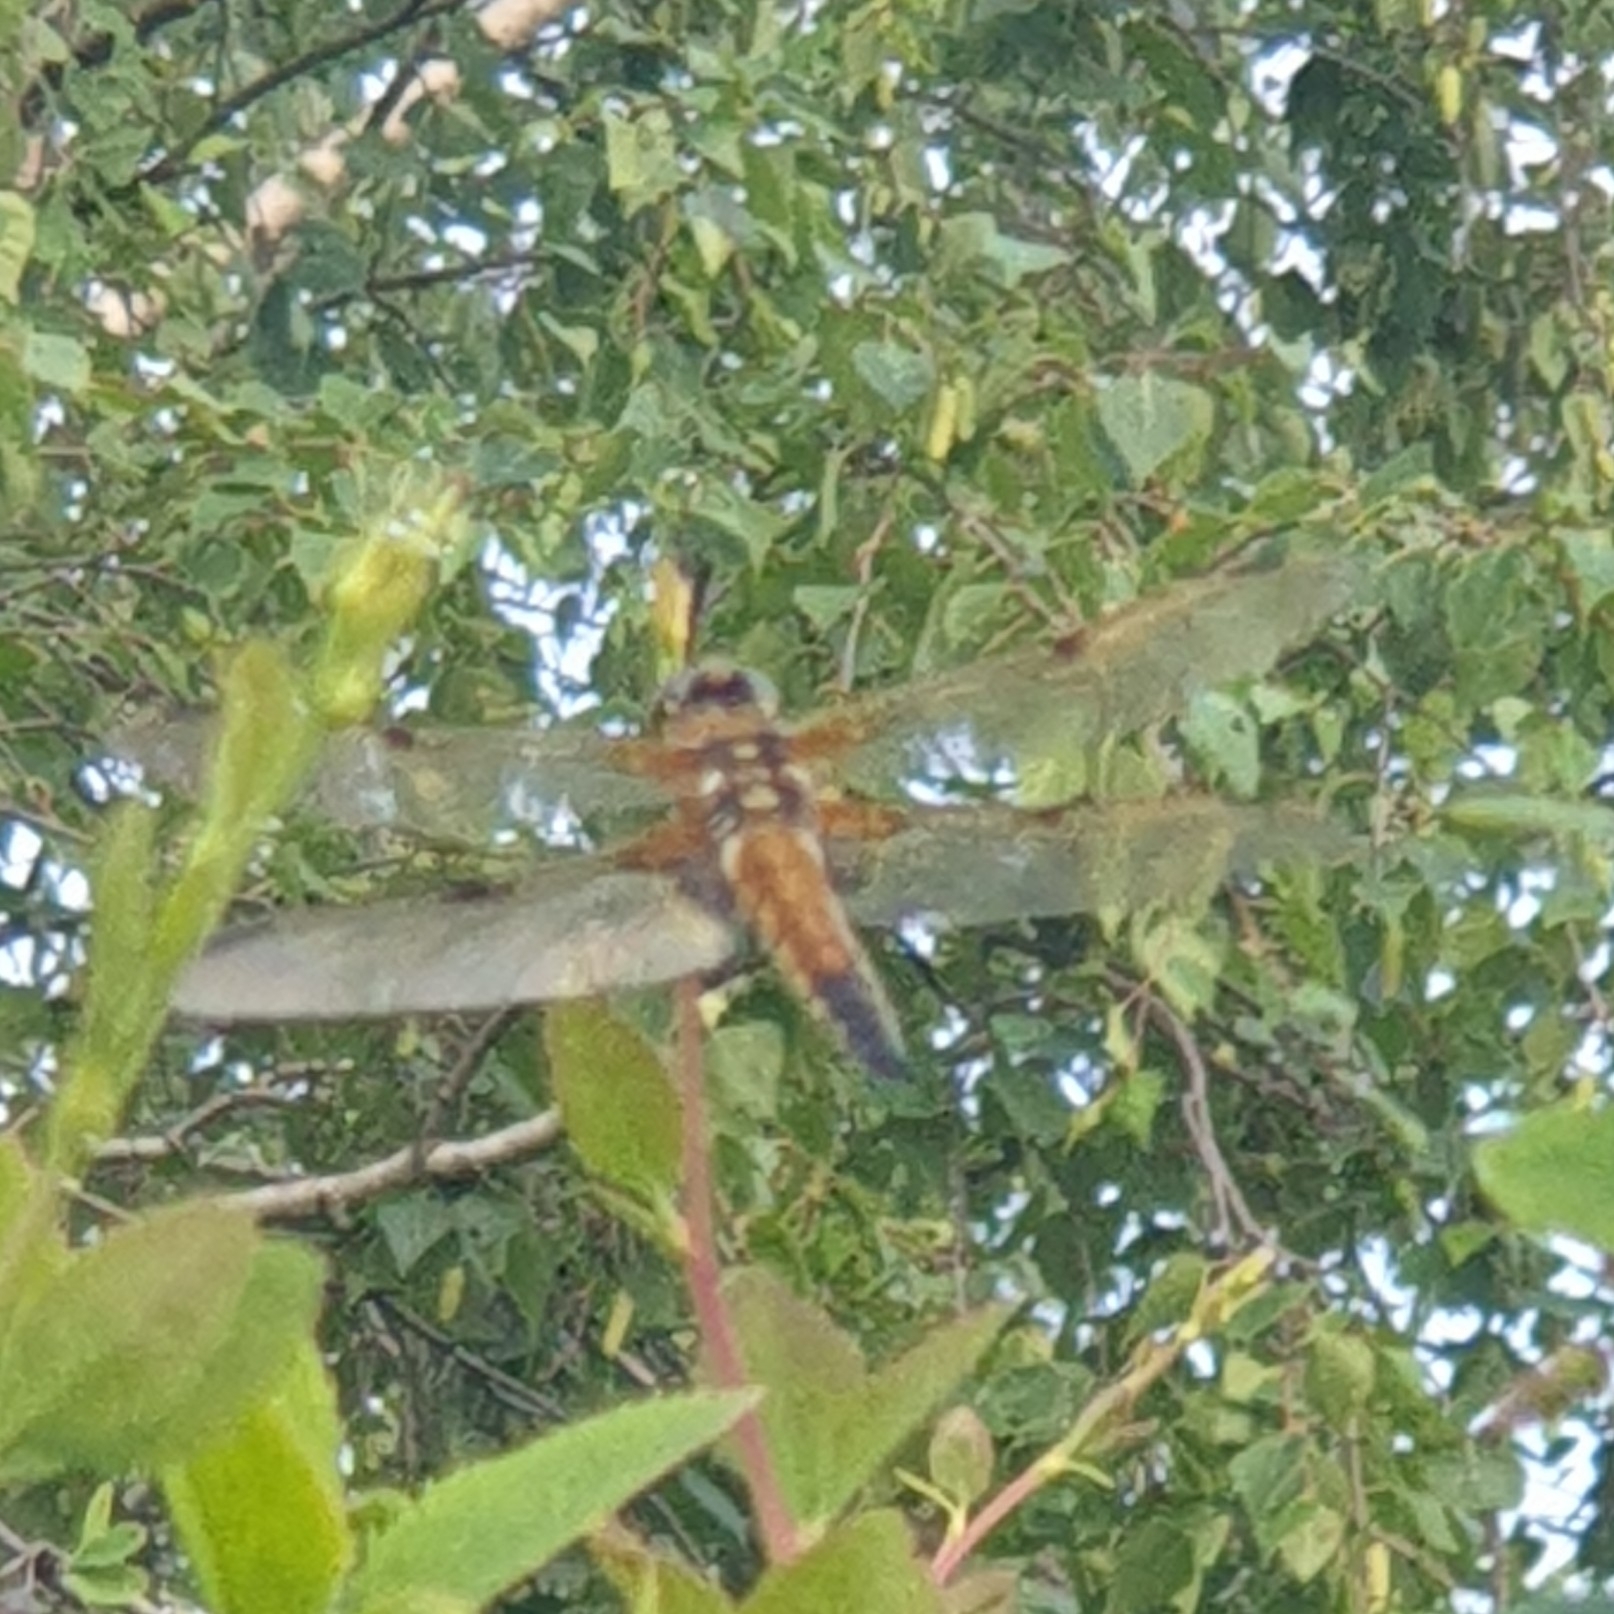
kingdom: Animalia
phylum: Arthropoda
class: Insecta
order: Odonata
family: Libellulidae
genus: Libellula
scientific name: Libellula quadrimaculata
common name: Four-spotted chaser
